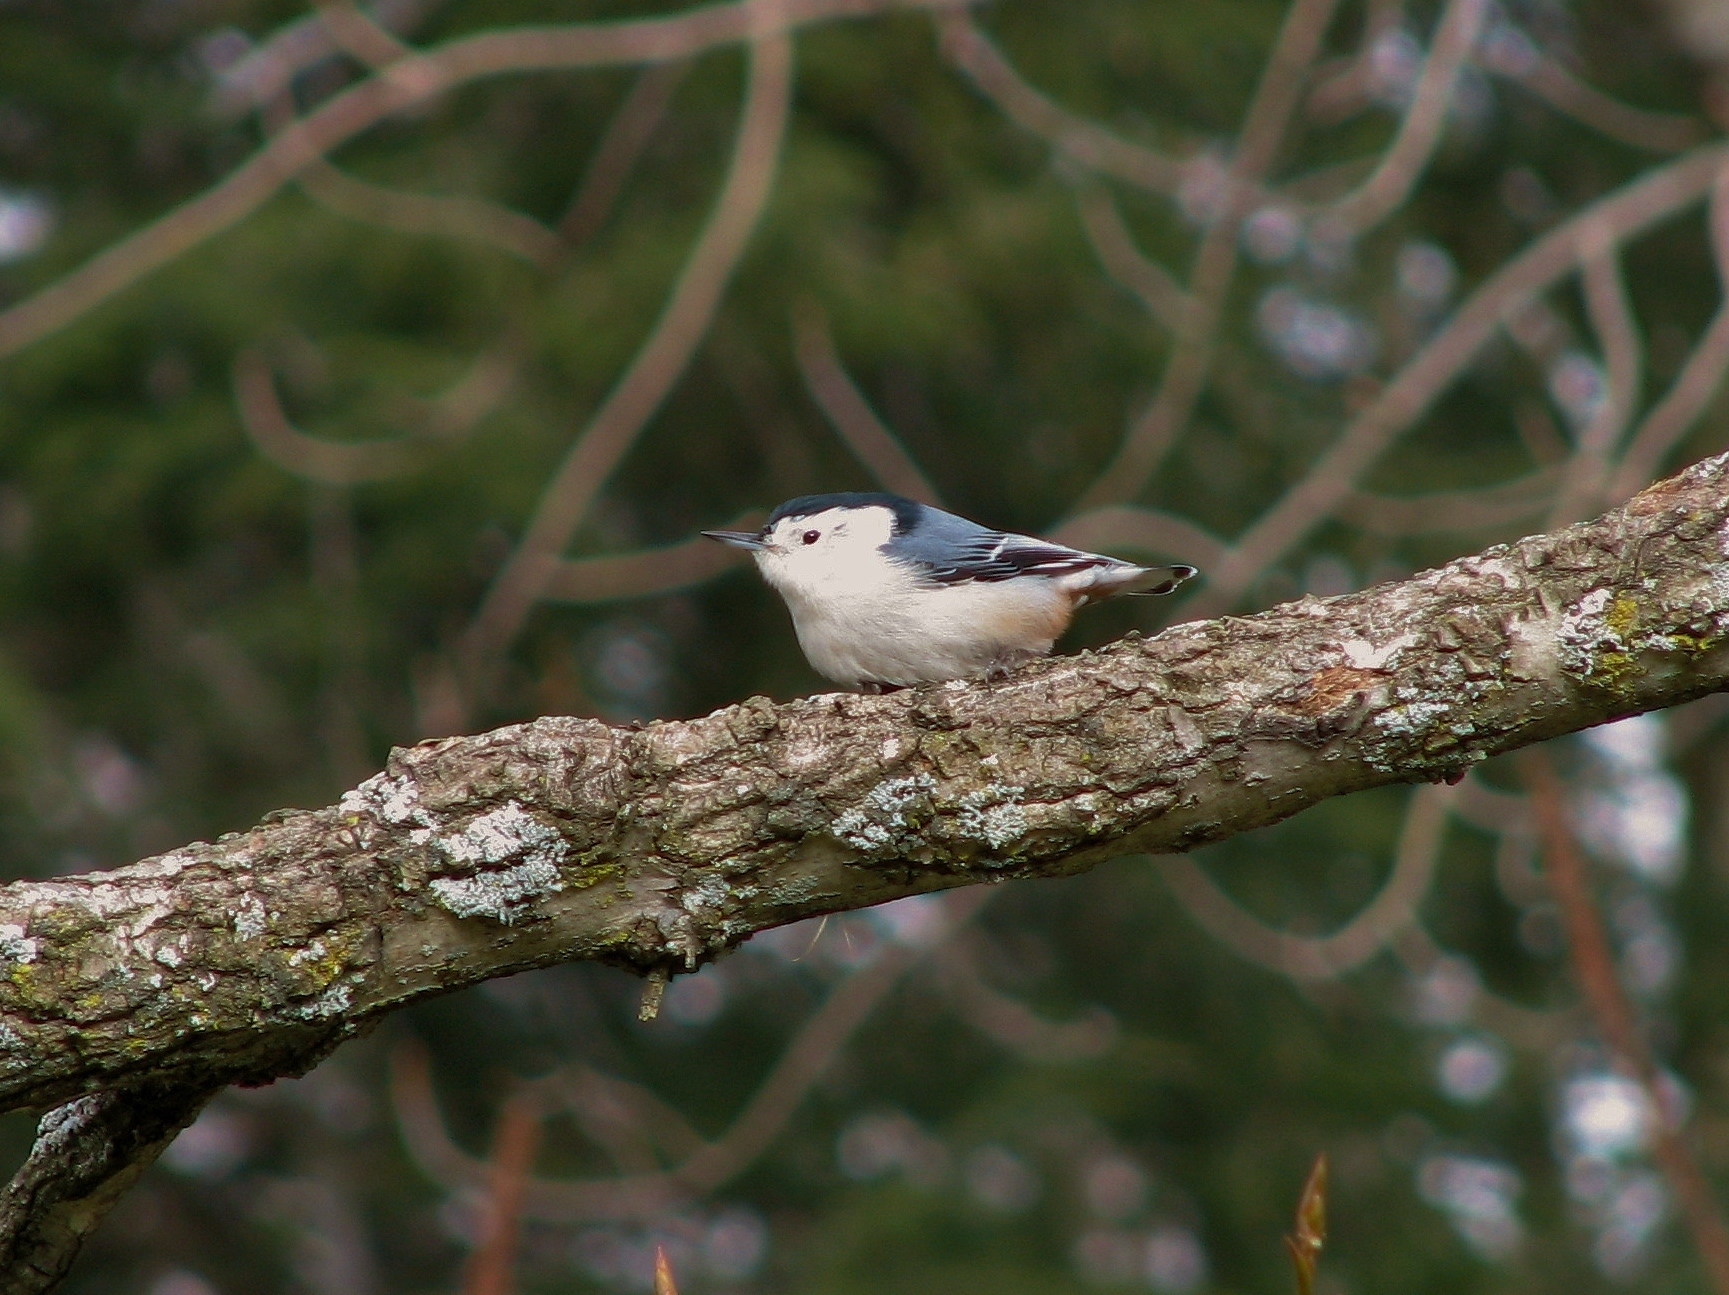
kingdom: Animalia
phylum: Chordata
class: Aves
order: Passeriformes
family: Sittidae
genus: Sitta
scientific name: Sitta carolinensis
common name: White-breasted nuthatch
